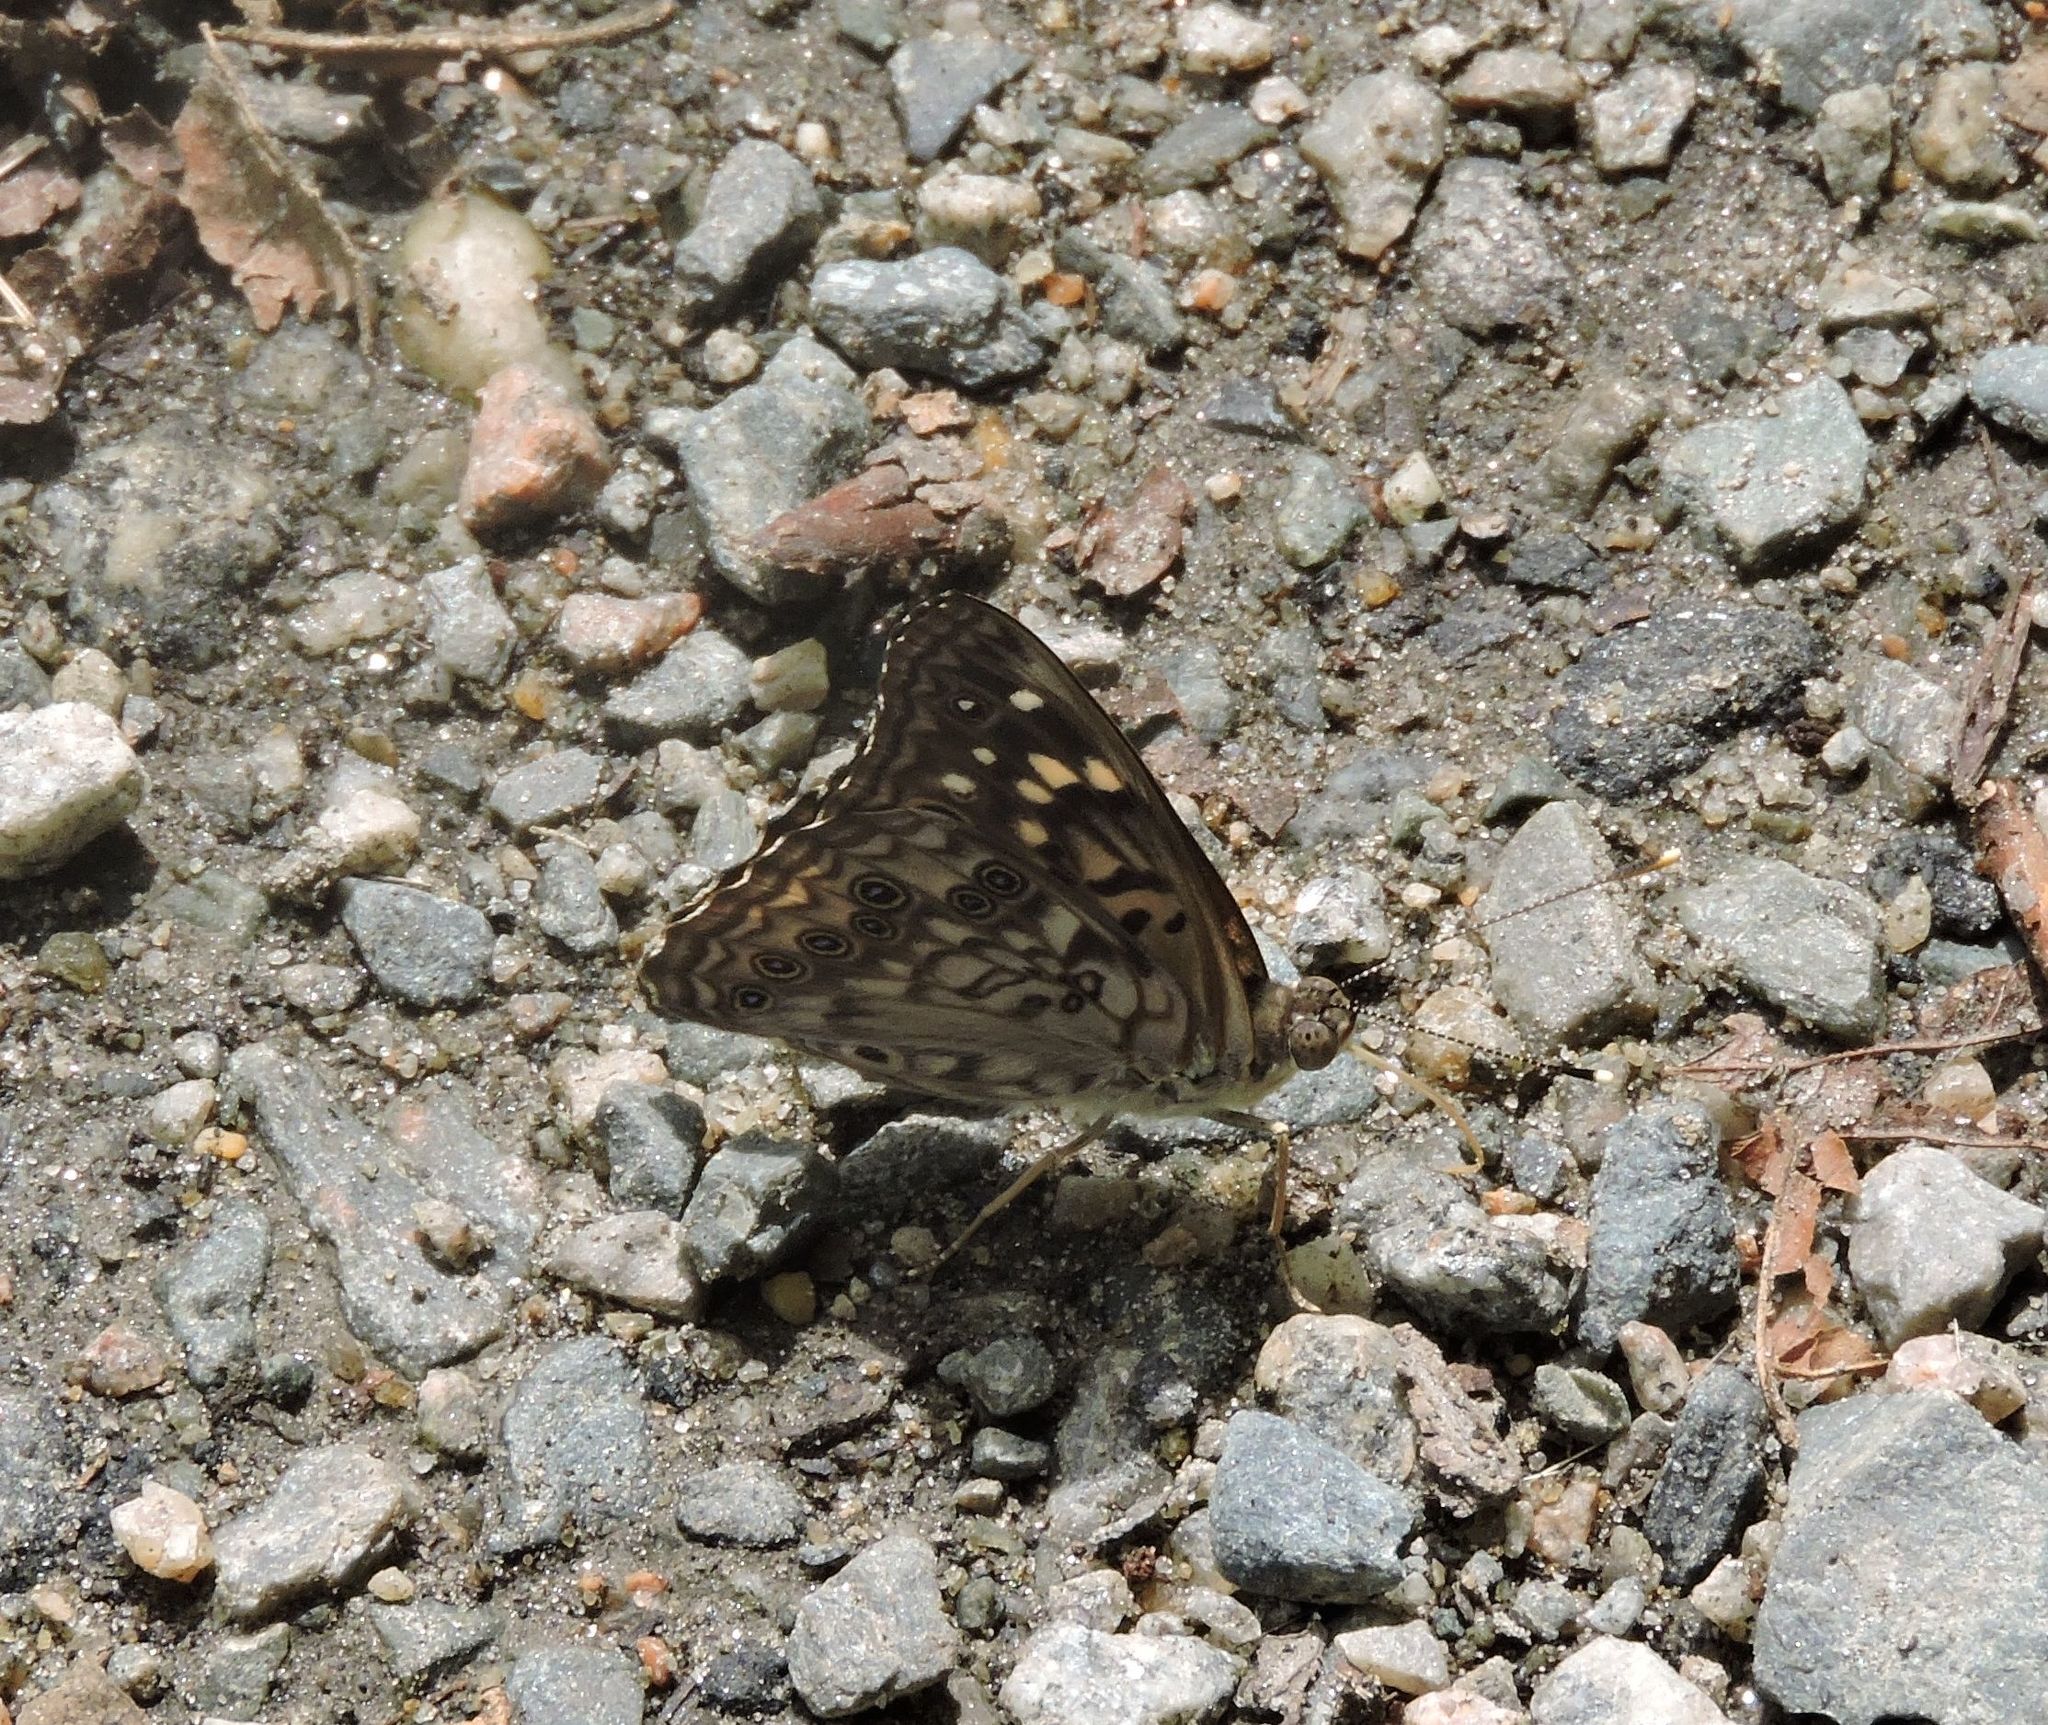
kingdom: Animalia
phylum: Arthropoda
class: Insecta
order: Lepidoptera
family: Nymphalidae
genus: Asterocampa
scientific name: Asterocampa celtis
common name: Hackberry emperor
